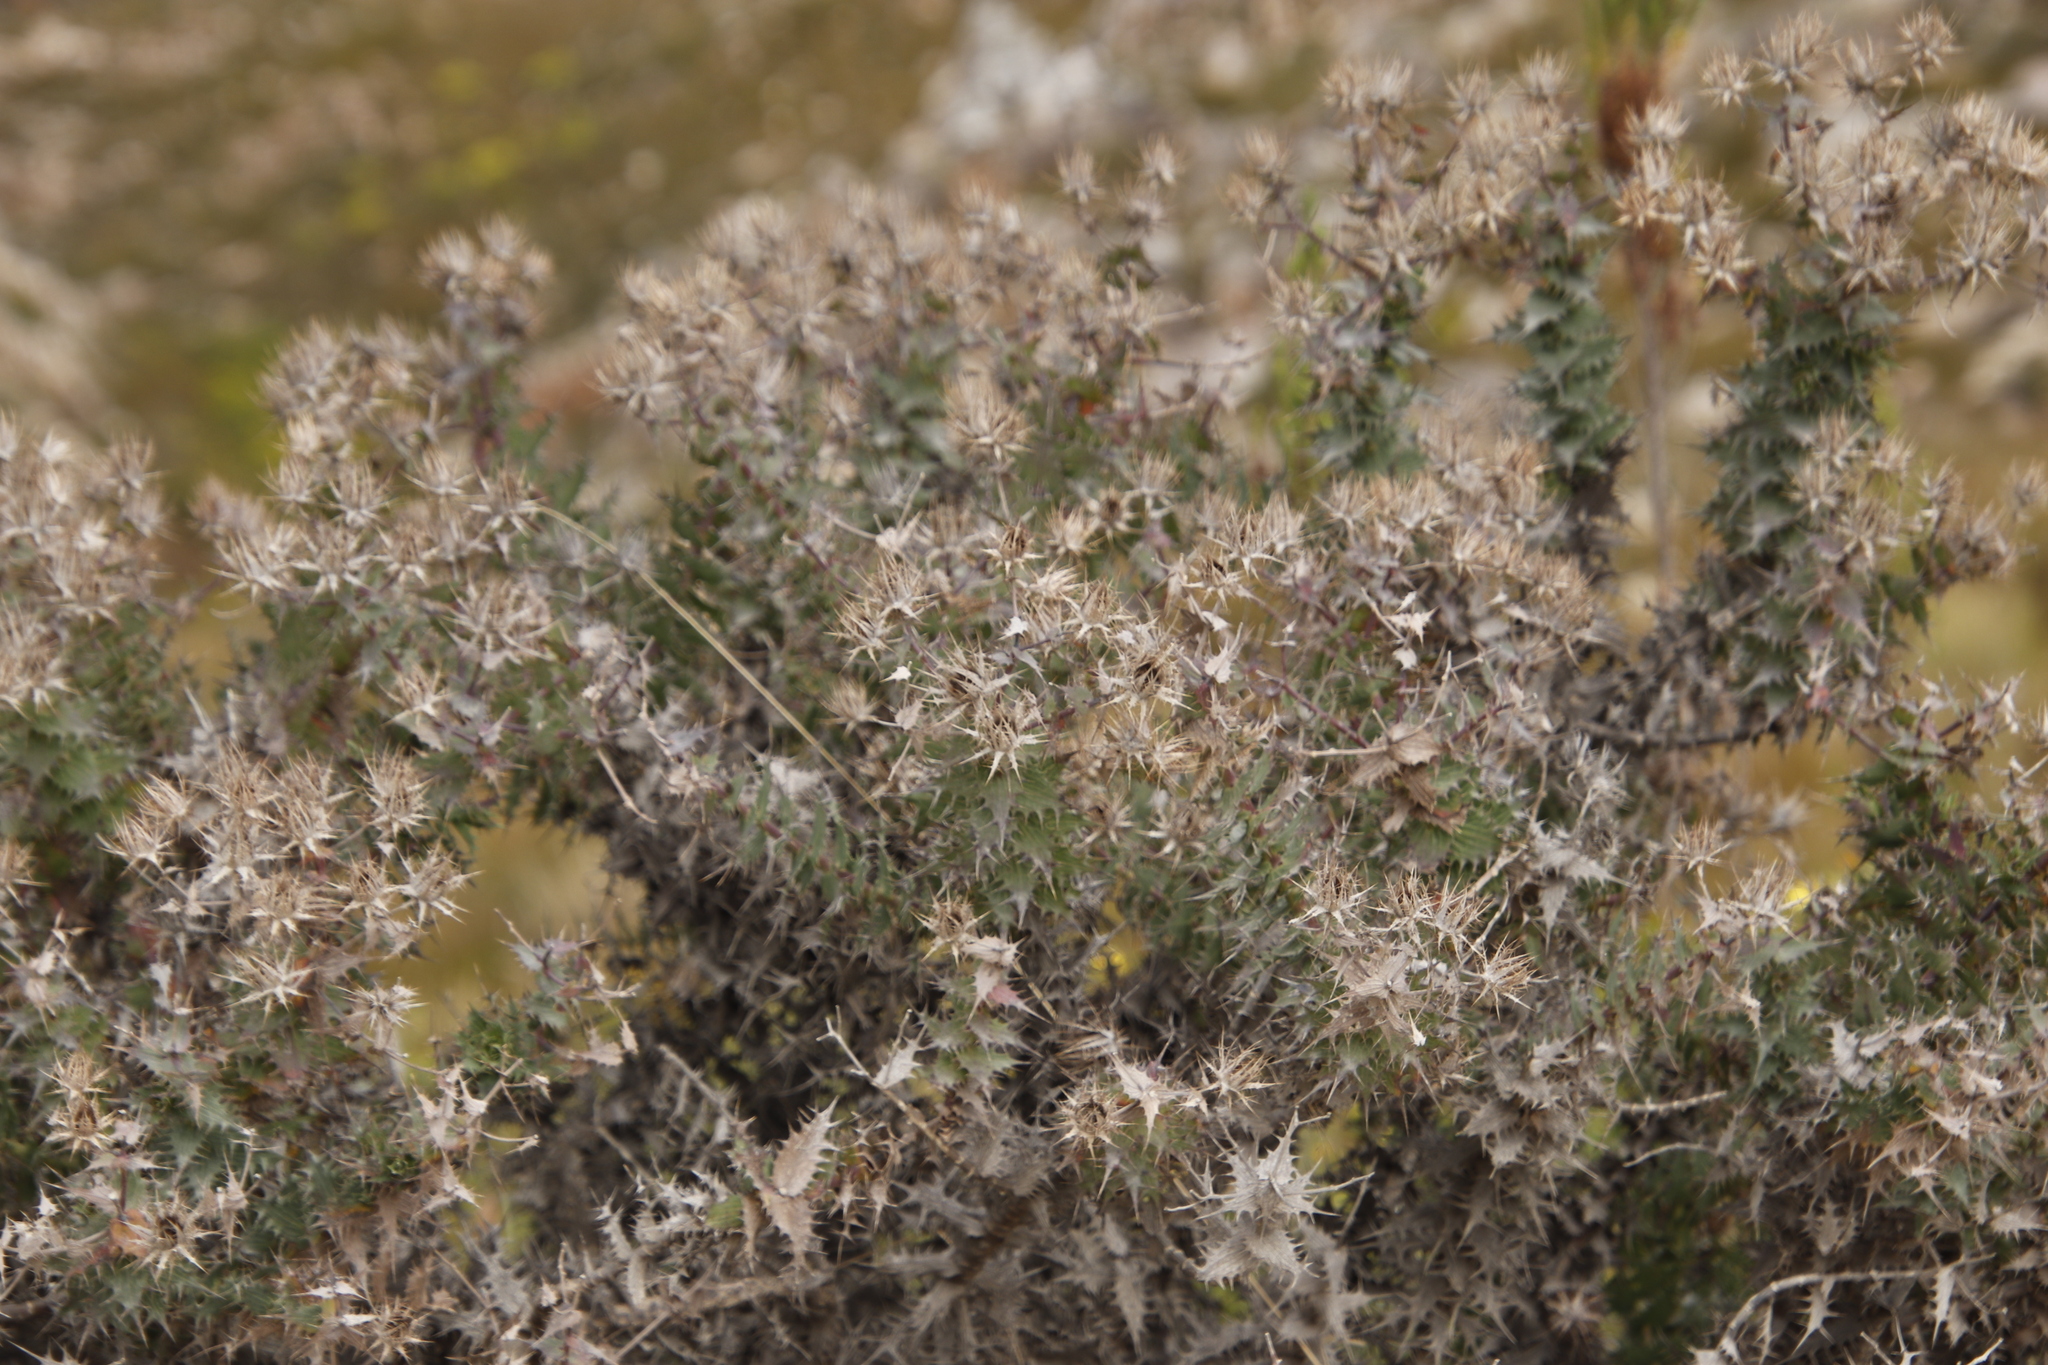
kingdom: Plantae
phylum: Tracheophyta
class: Magnoliopsida
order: Asterales
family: Asteraceae
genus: Berkheya
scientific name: Berkheya cruciata
